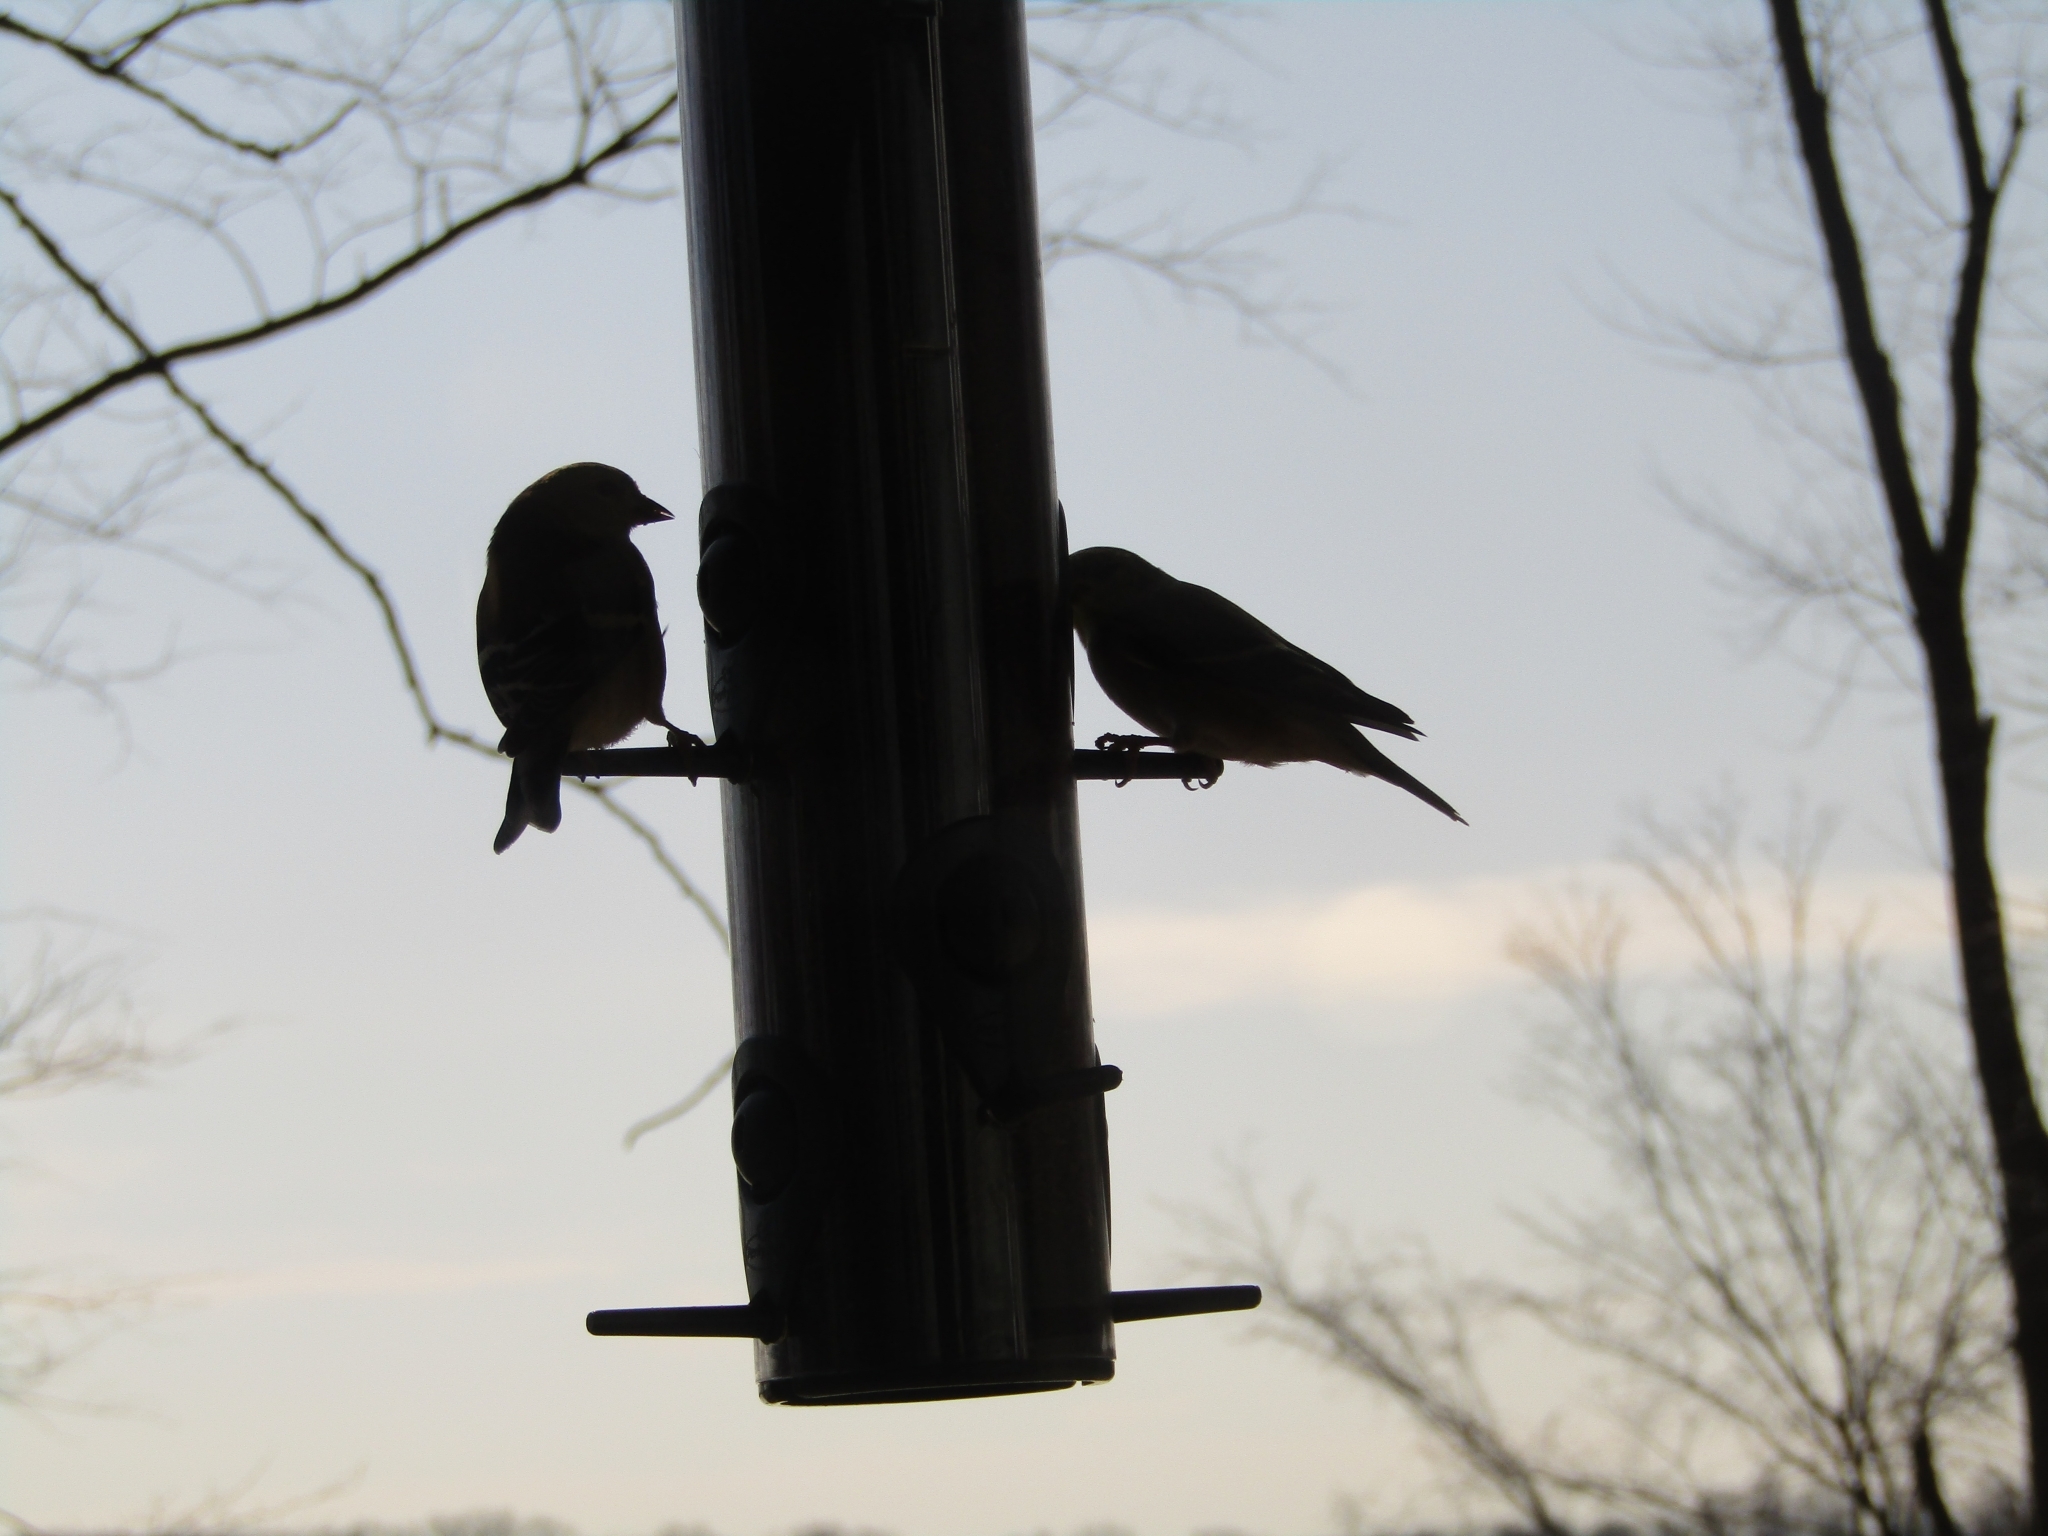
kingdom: Animalia
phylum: Chordata
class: Aves
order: Passeriformes
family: Fringillidae
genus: Spinus
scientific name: Spinus tristis
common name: American goldfinch
